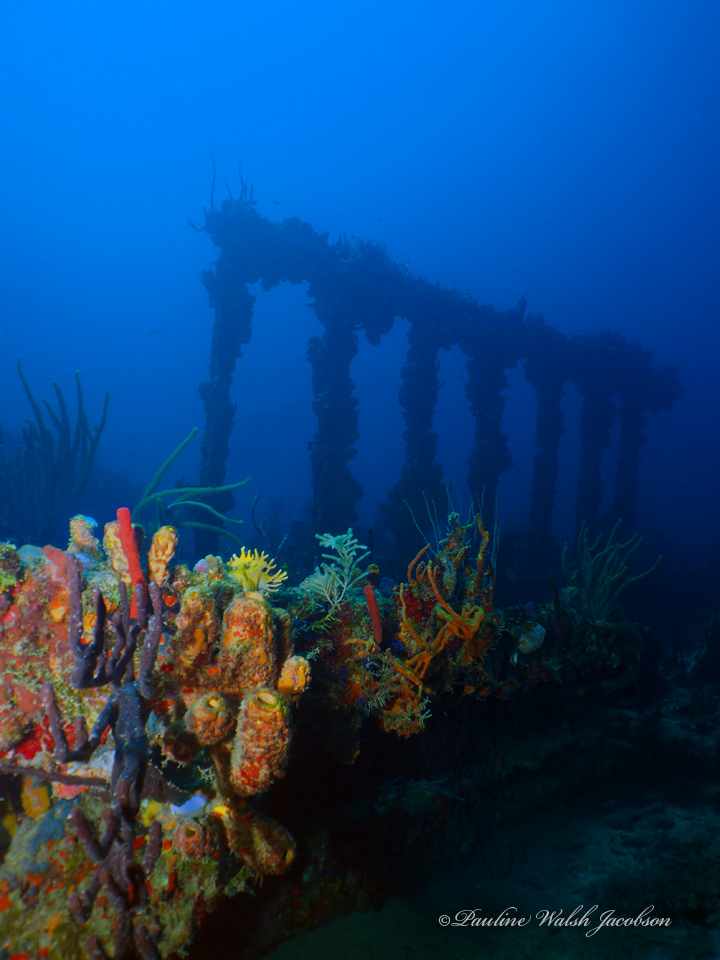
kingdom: Animalia
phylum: Porifera
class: Demospongiae
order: Verongiida
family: Aplysinidae
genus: Aplysina
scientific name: Aplysina lacunosa
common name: Convoluted barrel sponge
